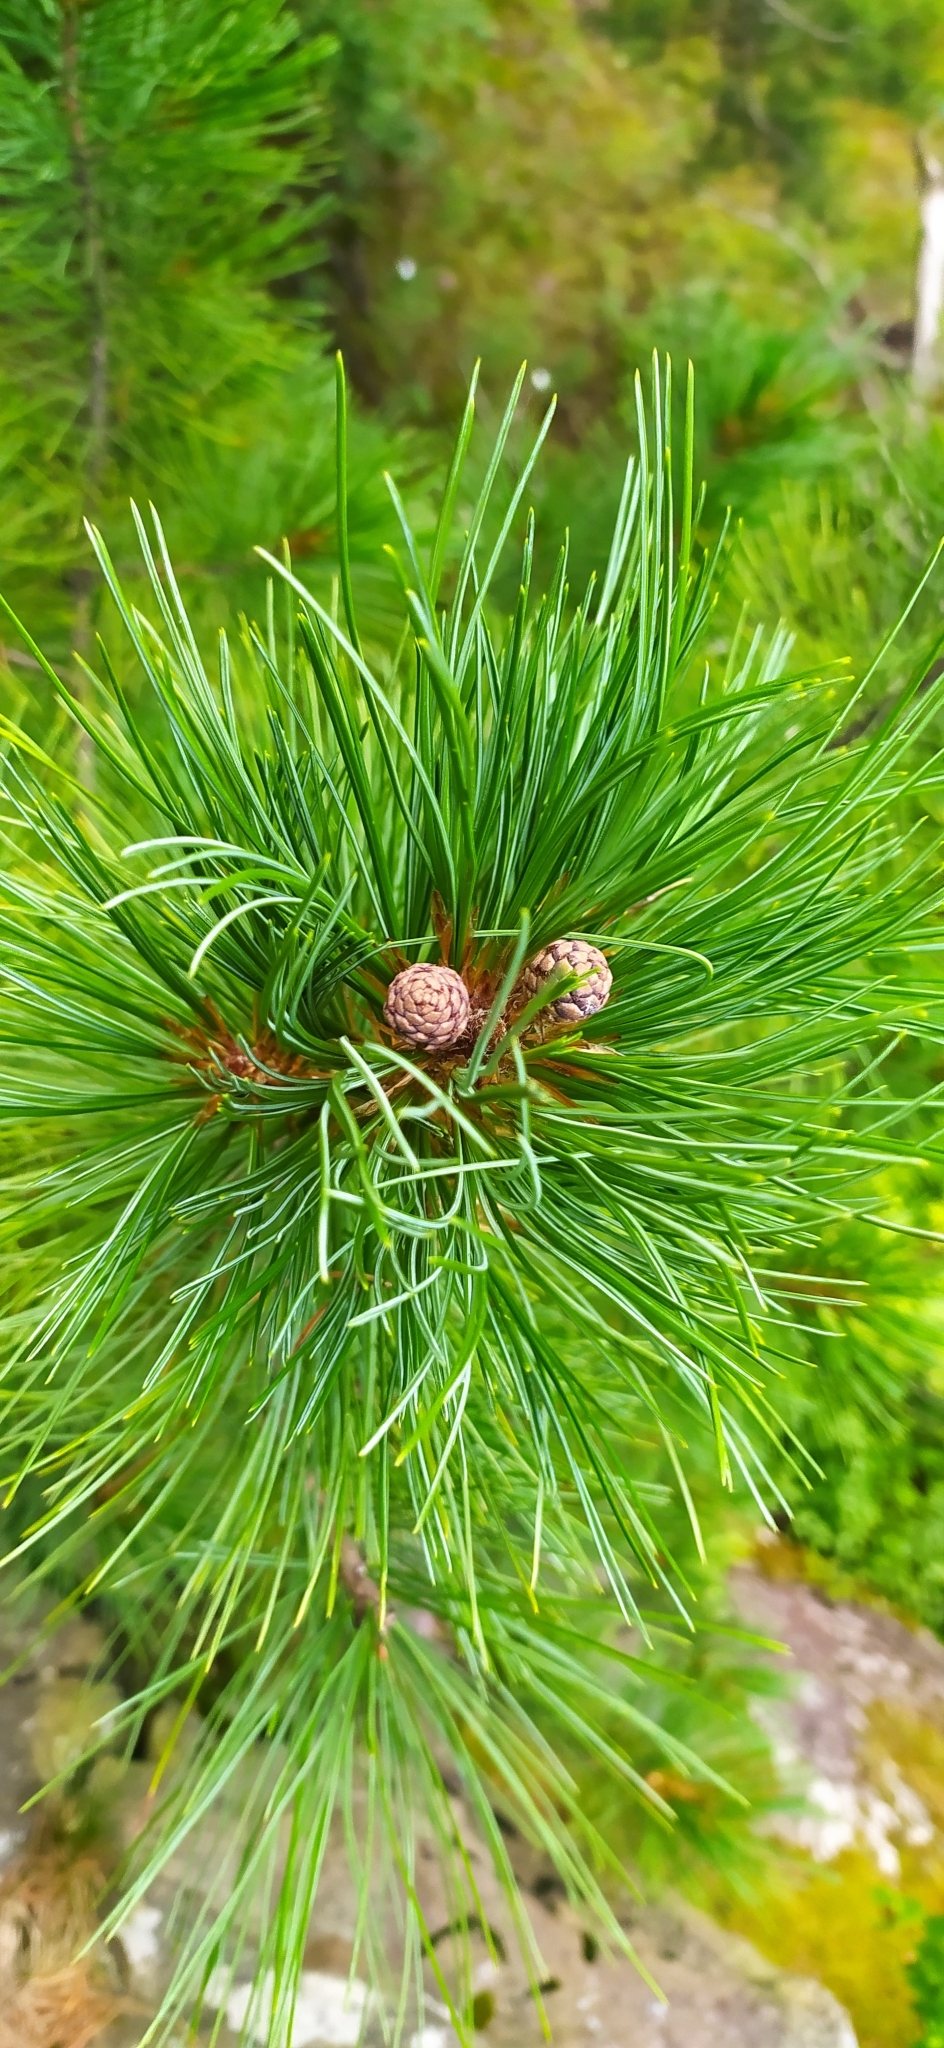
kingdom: Plantae
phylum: Tracheophyta
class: Pinopsida
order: Pinales
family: Pinaceae
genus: Pinus
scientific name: Pinus sibirica
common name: Siberian pine
